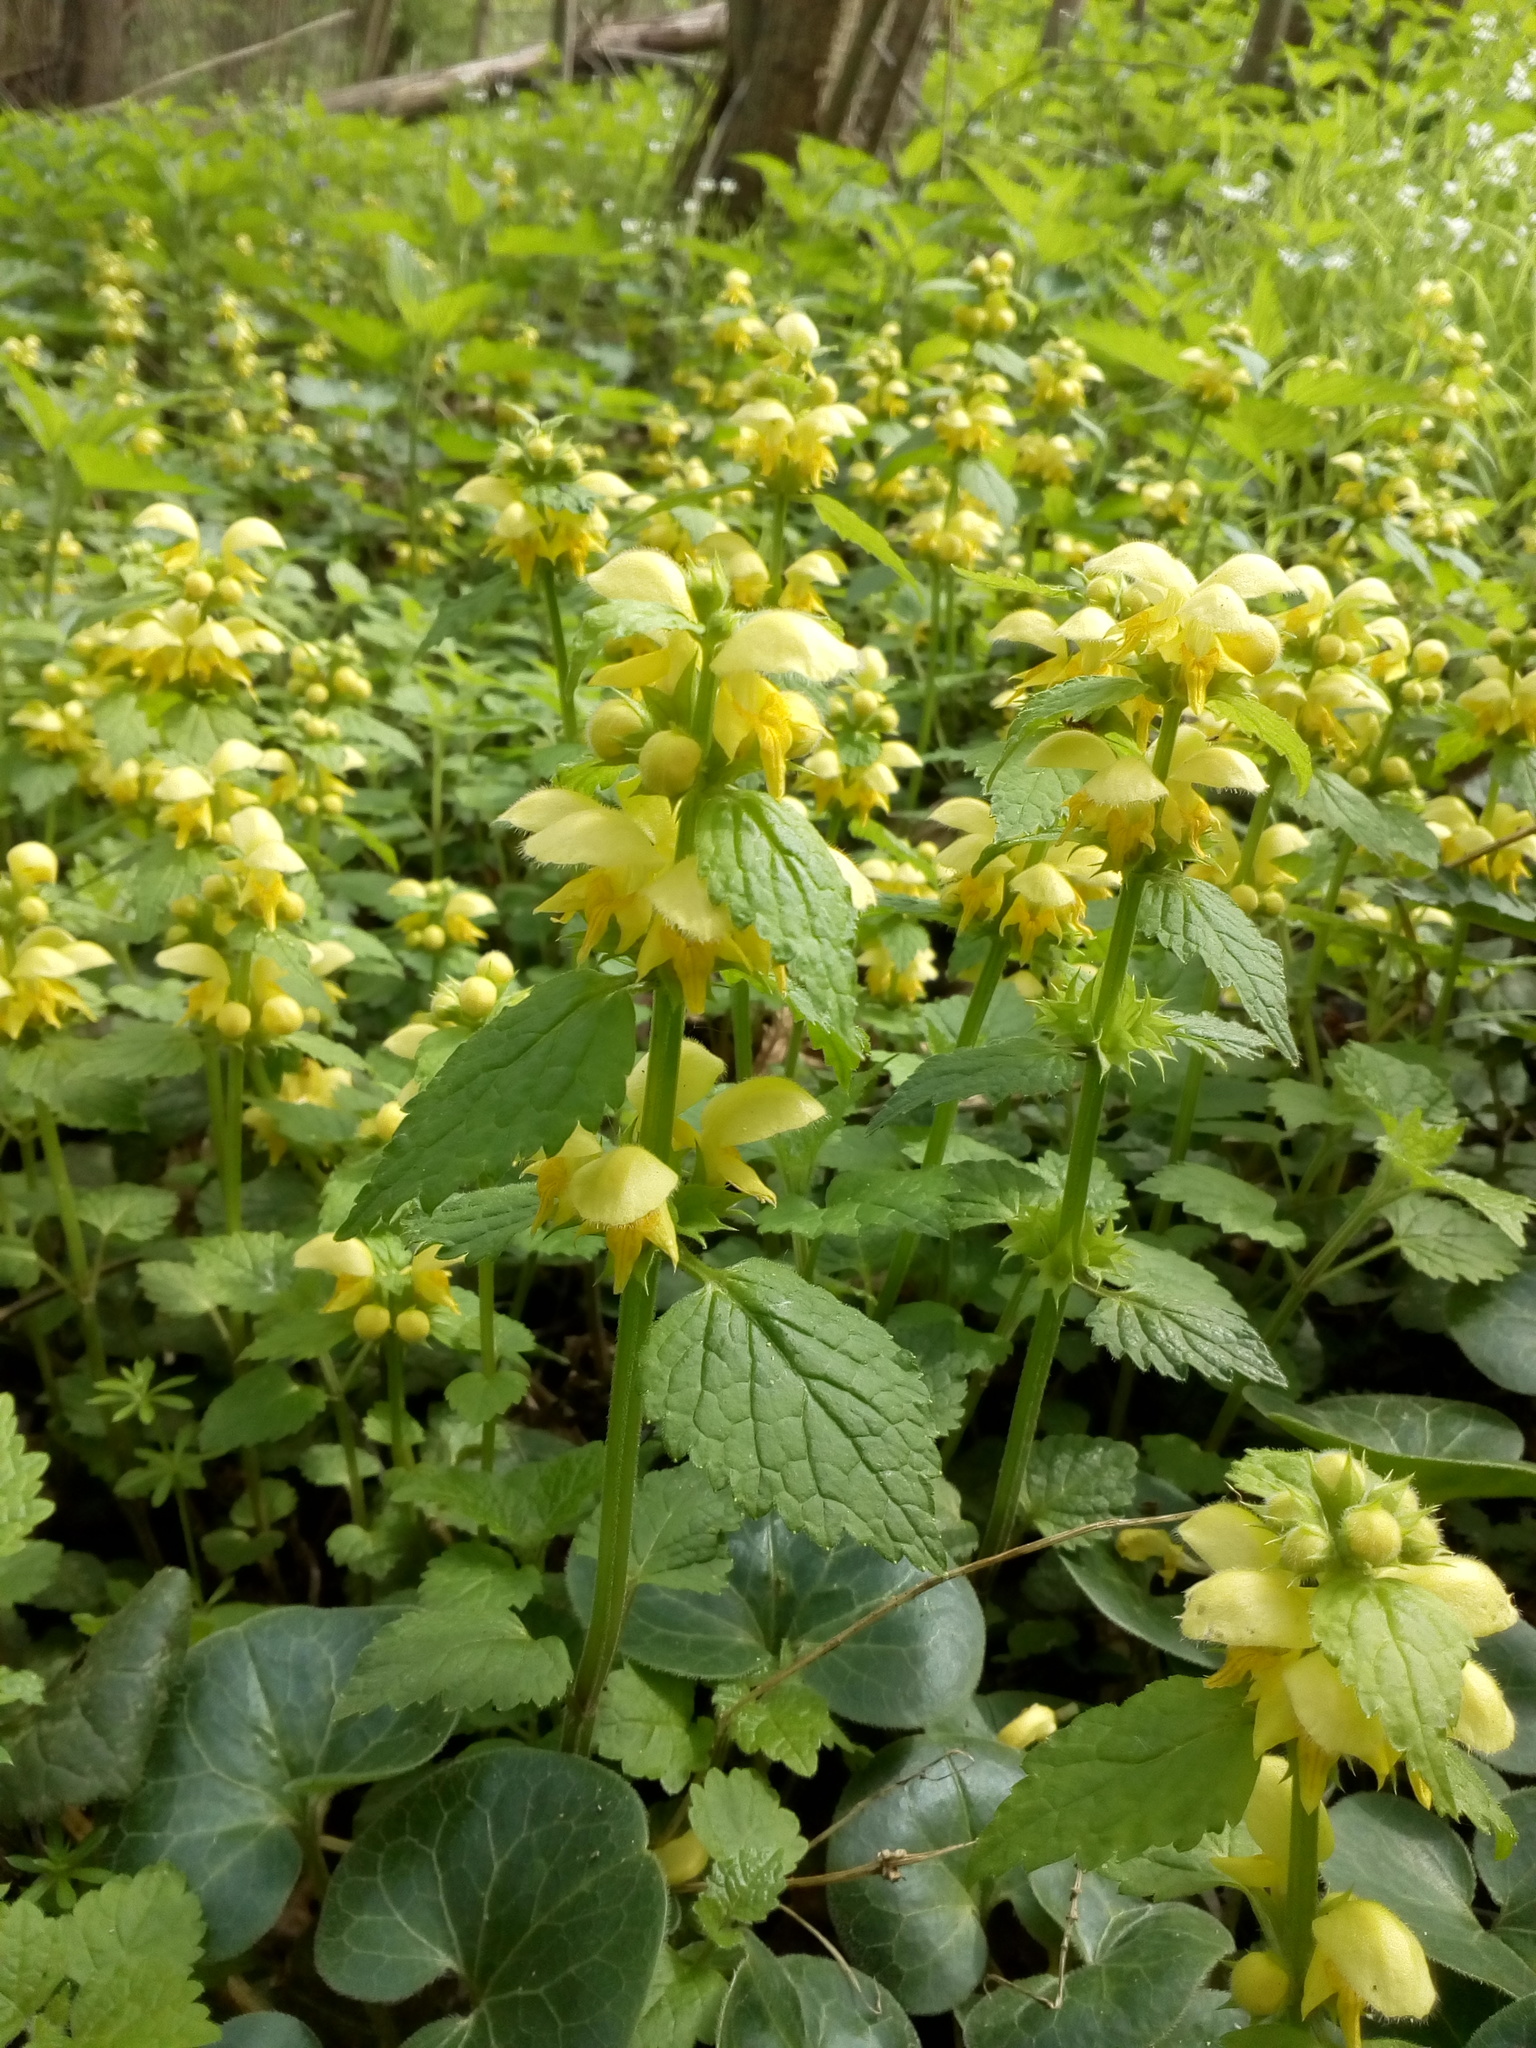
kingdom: Plantae
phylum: Tracheophyta
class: Magnoliopsida
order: Lamiales
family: Lamiaceae
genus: Lamium
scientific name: Lamium galeobdolon
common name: Yellow archangel
